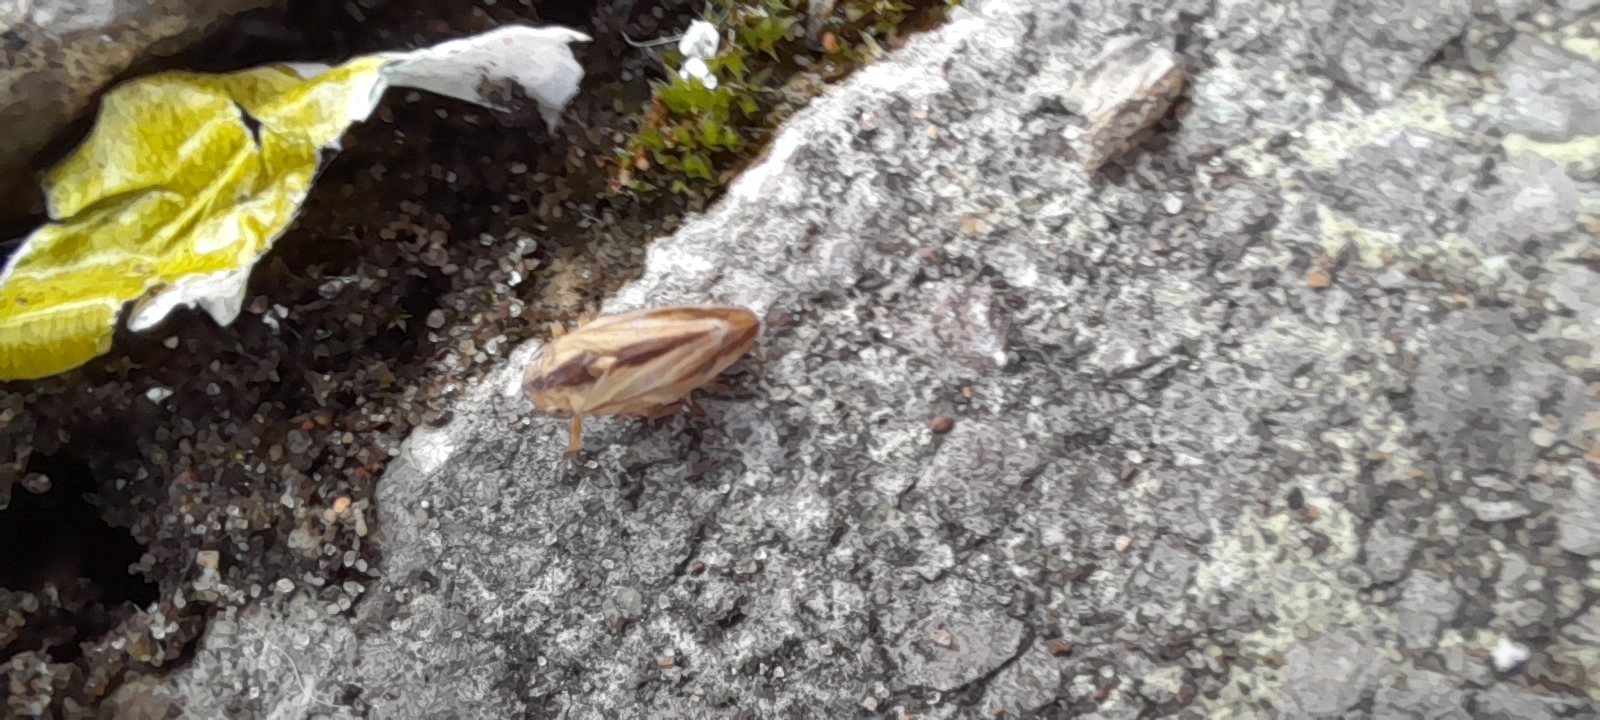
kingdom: Animalia
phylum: Arthropoda
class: Insecta
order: Hemiptera
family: Aphrophoridae
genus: Philaenus
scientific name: Philaenus spumarius
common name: Meadow spittlebug
